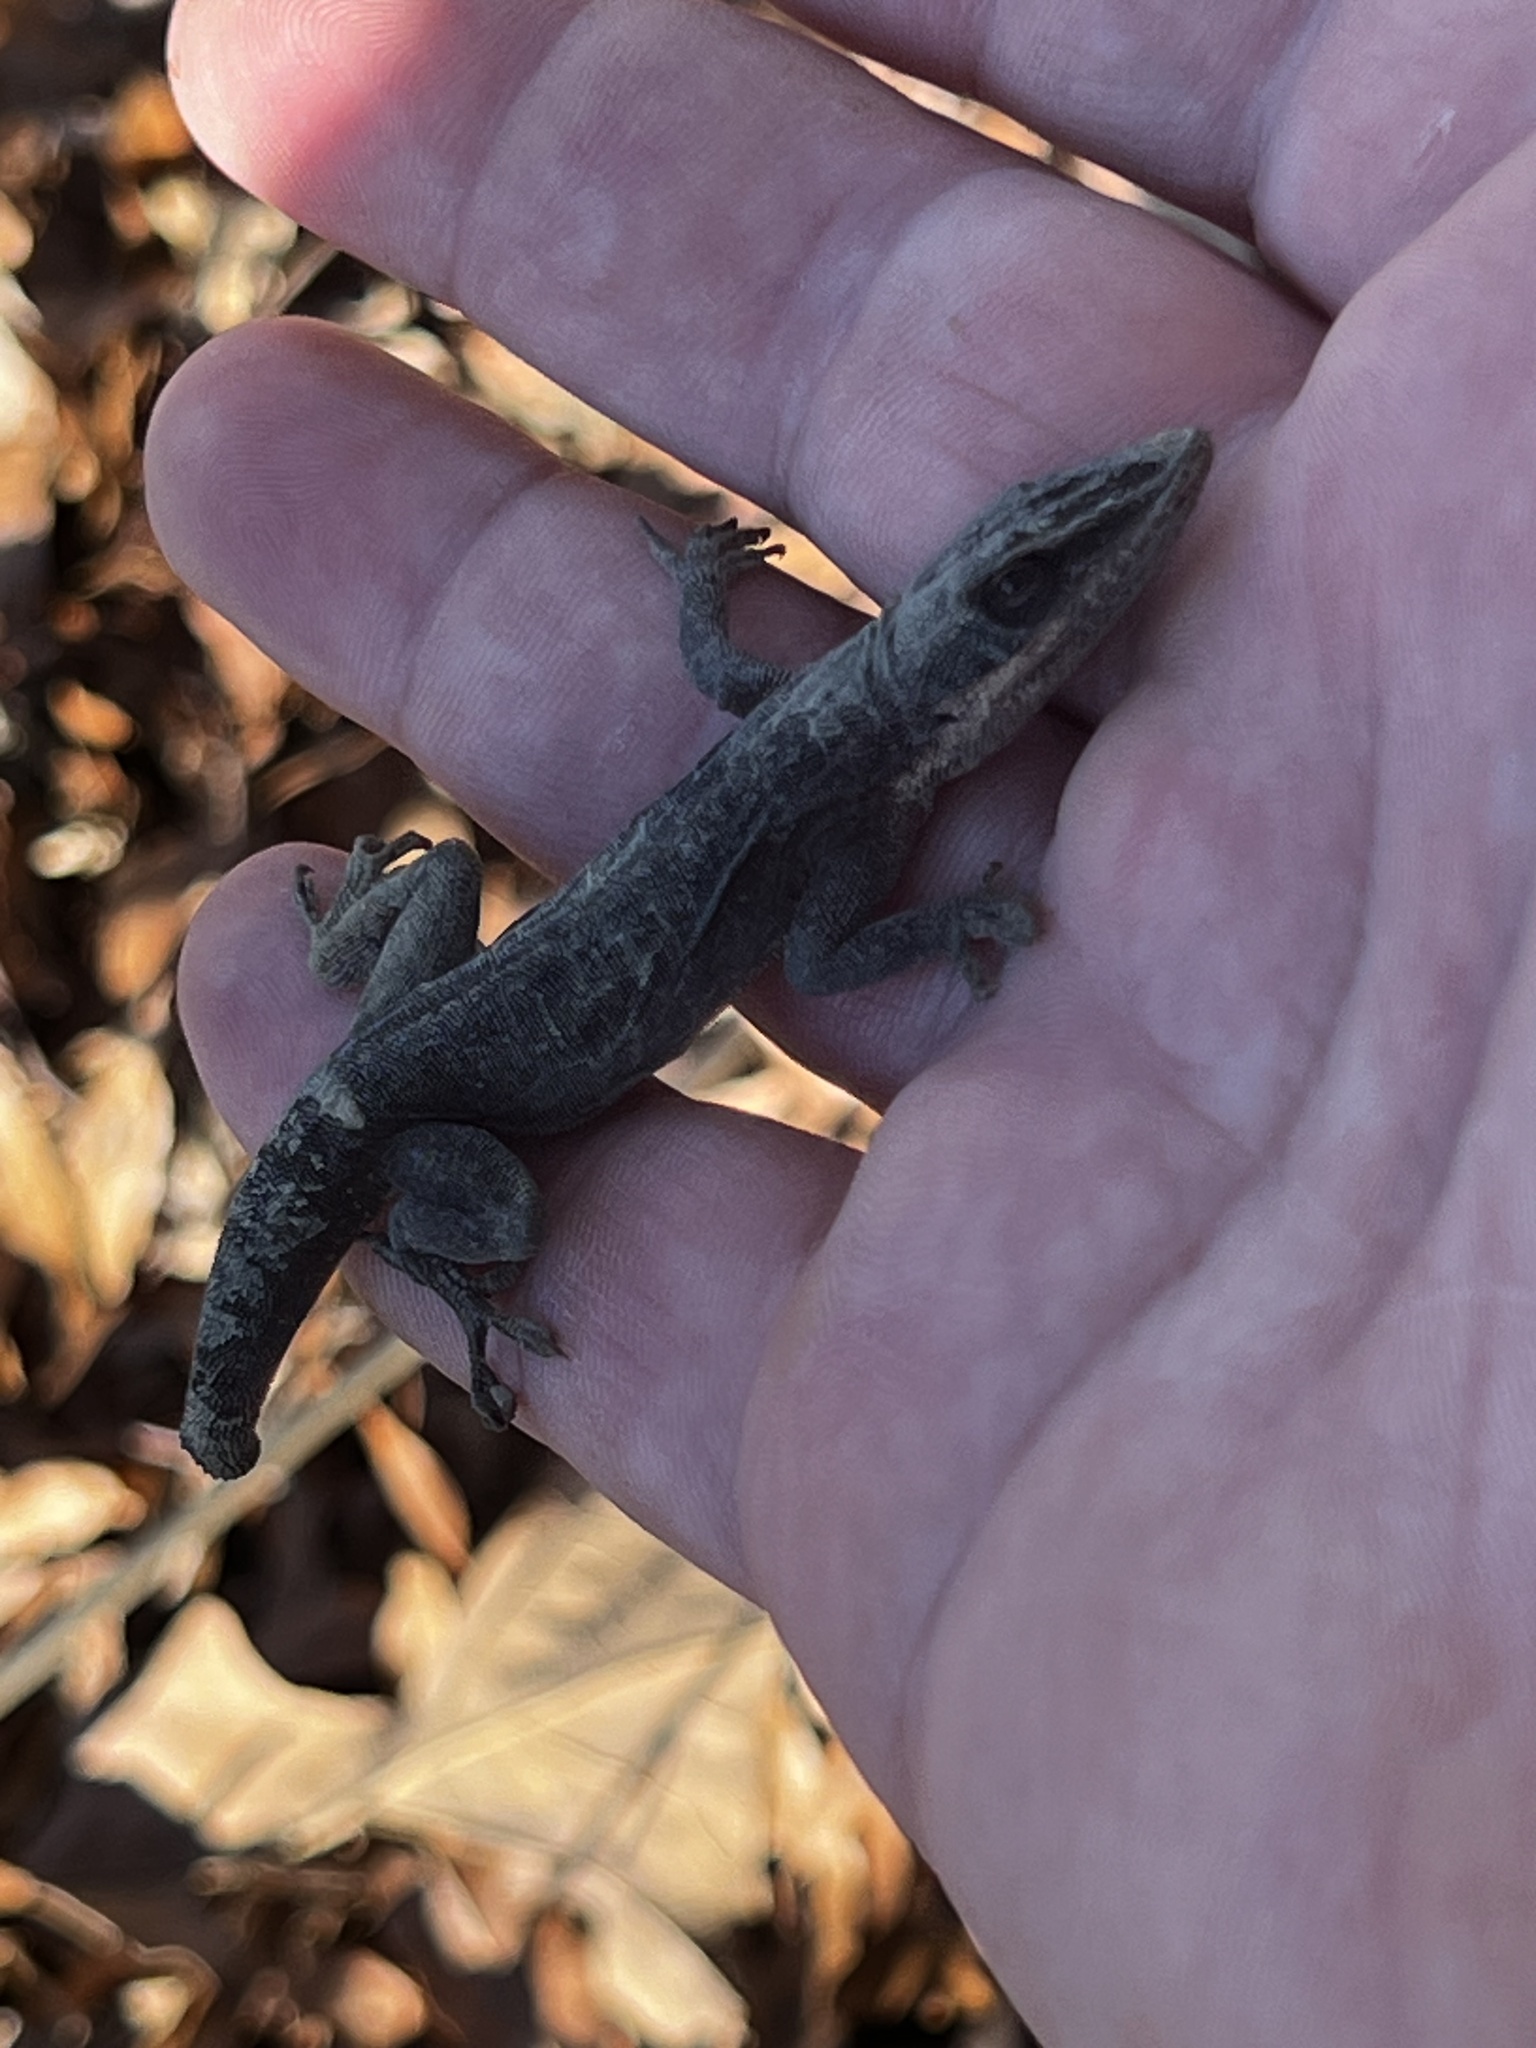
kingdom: Animalia
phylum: Chordata
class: Squamata
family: Dactyloidae
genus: Anolis
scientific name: Anolis carolinensis
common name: Green anole
